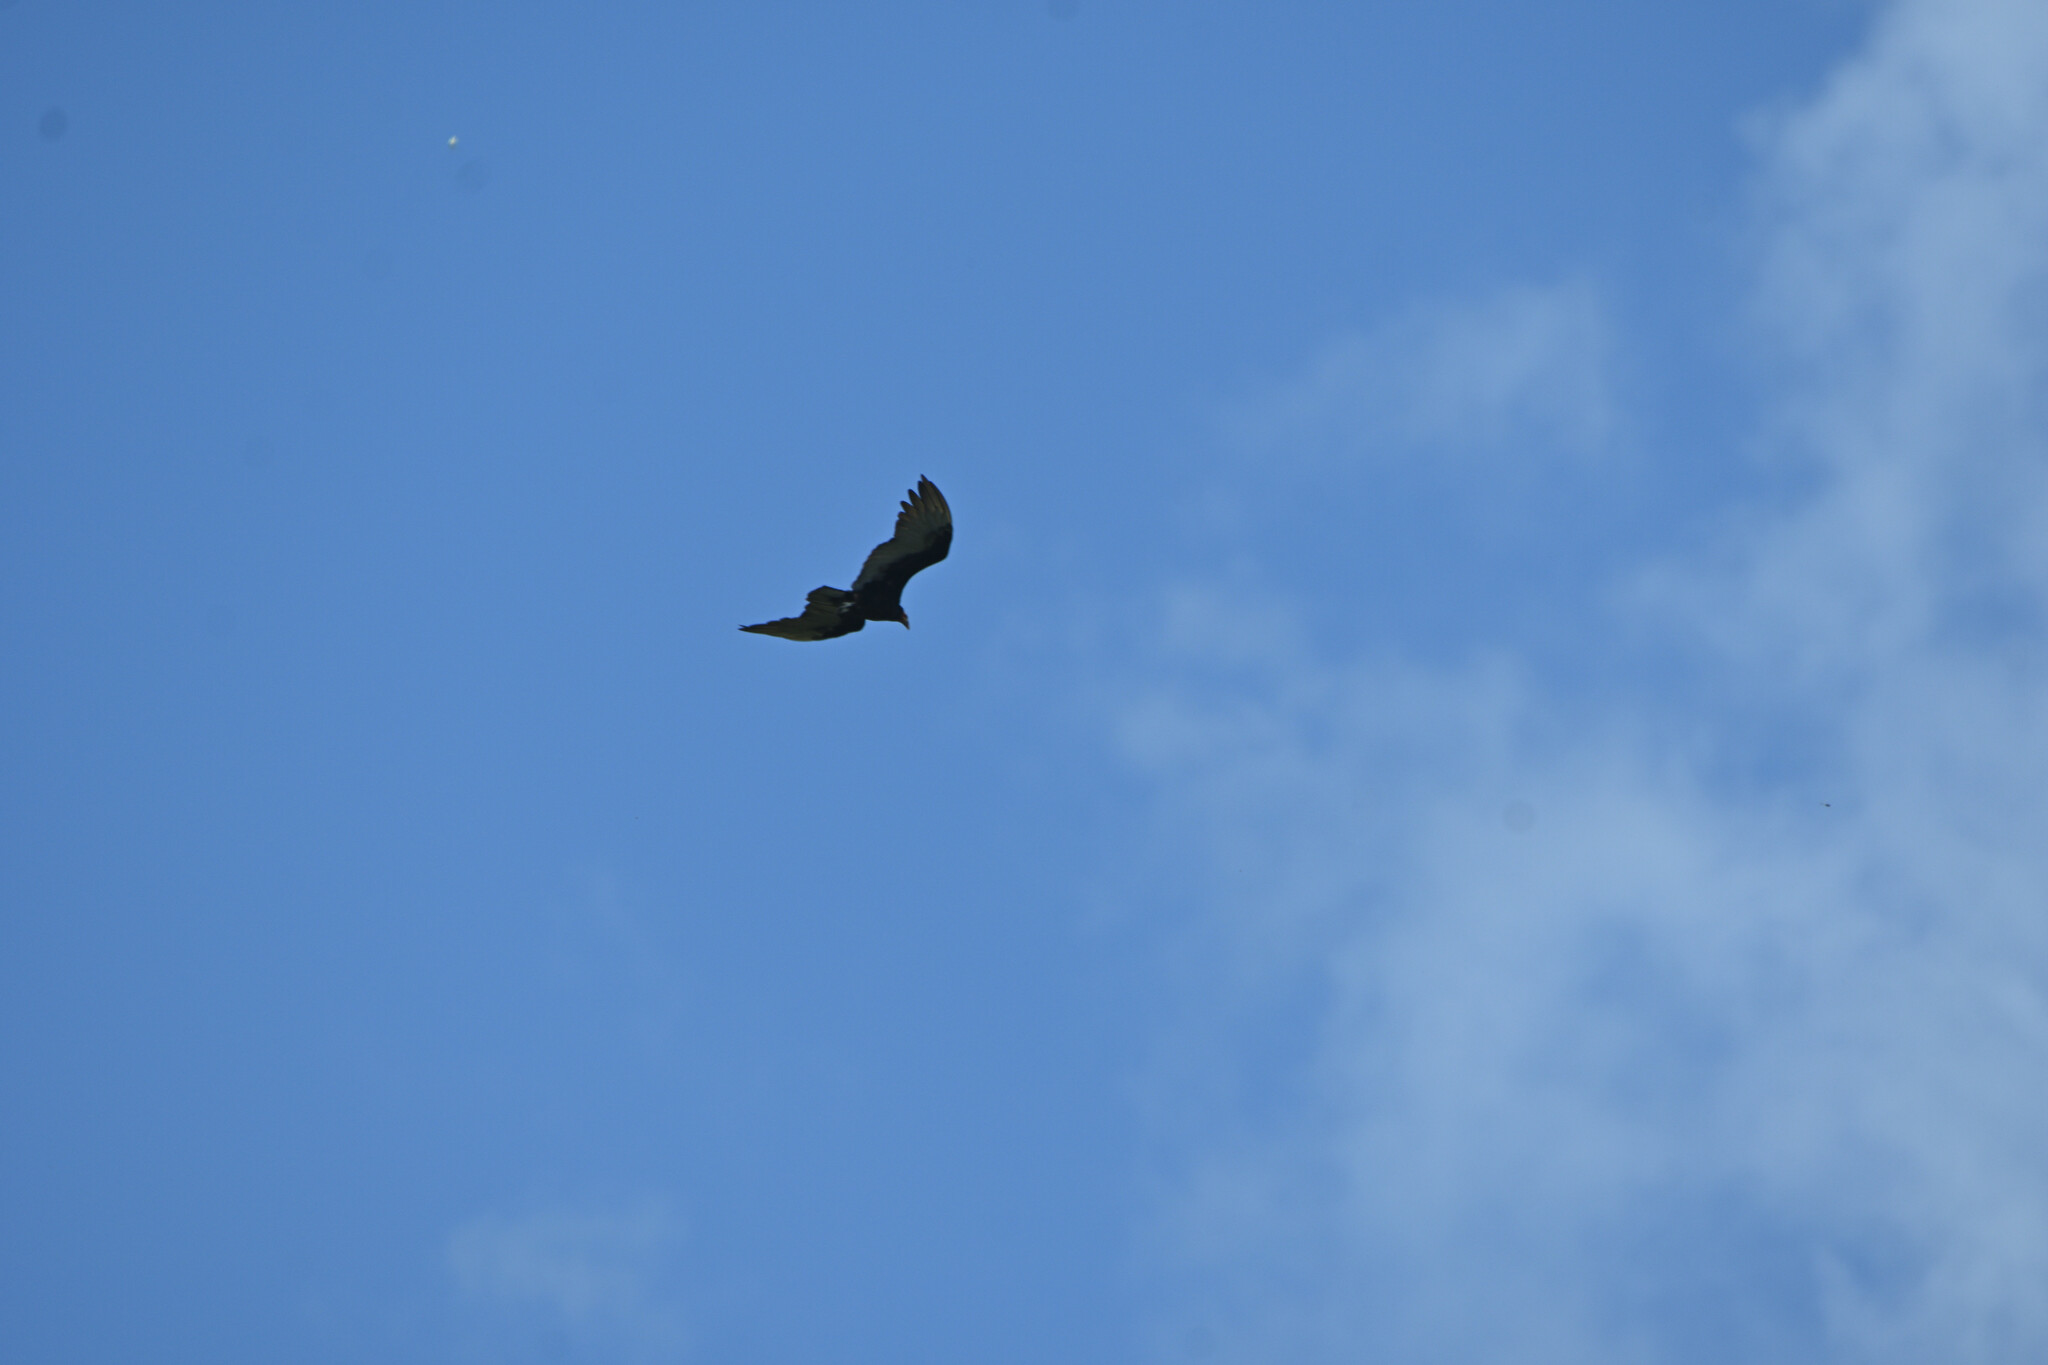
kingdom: Animalia
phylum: Chordata
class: Aves
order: Accipitriformes
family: Cathartidae
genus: Cathartes
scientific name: Cathartes burrovianus
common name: Lesser yellow-headed vulture
